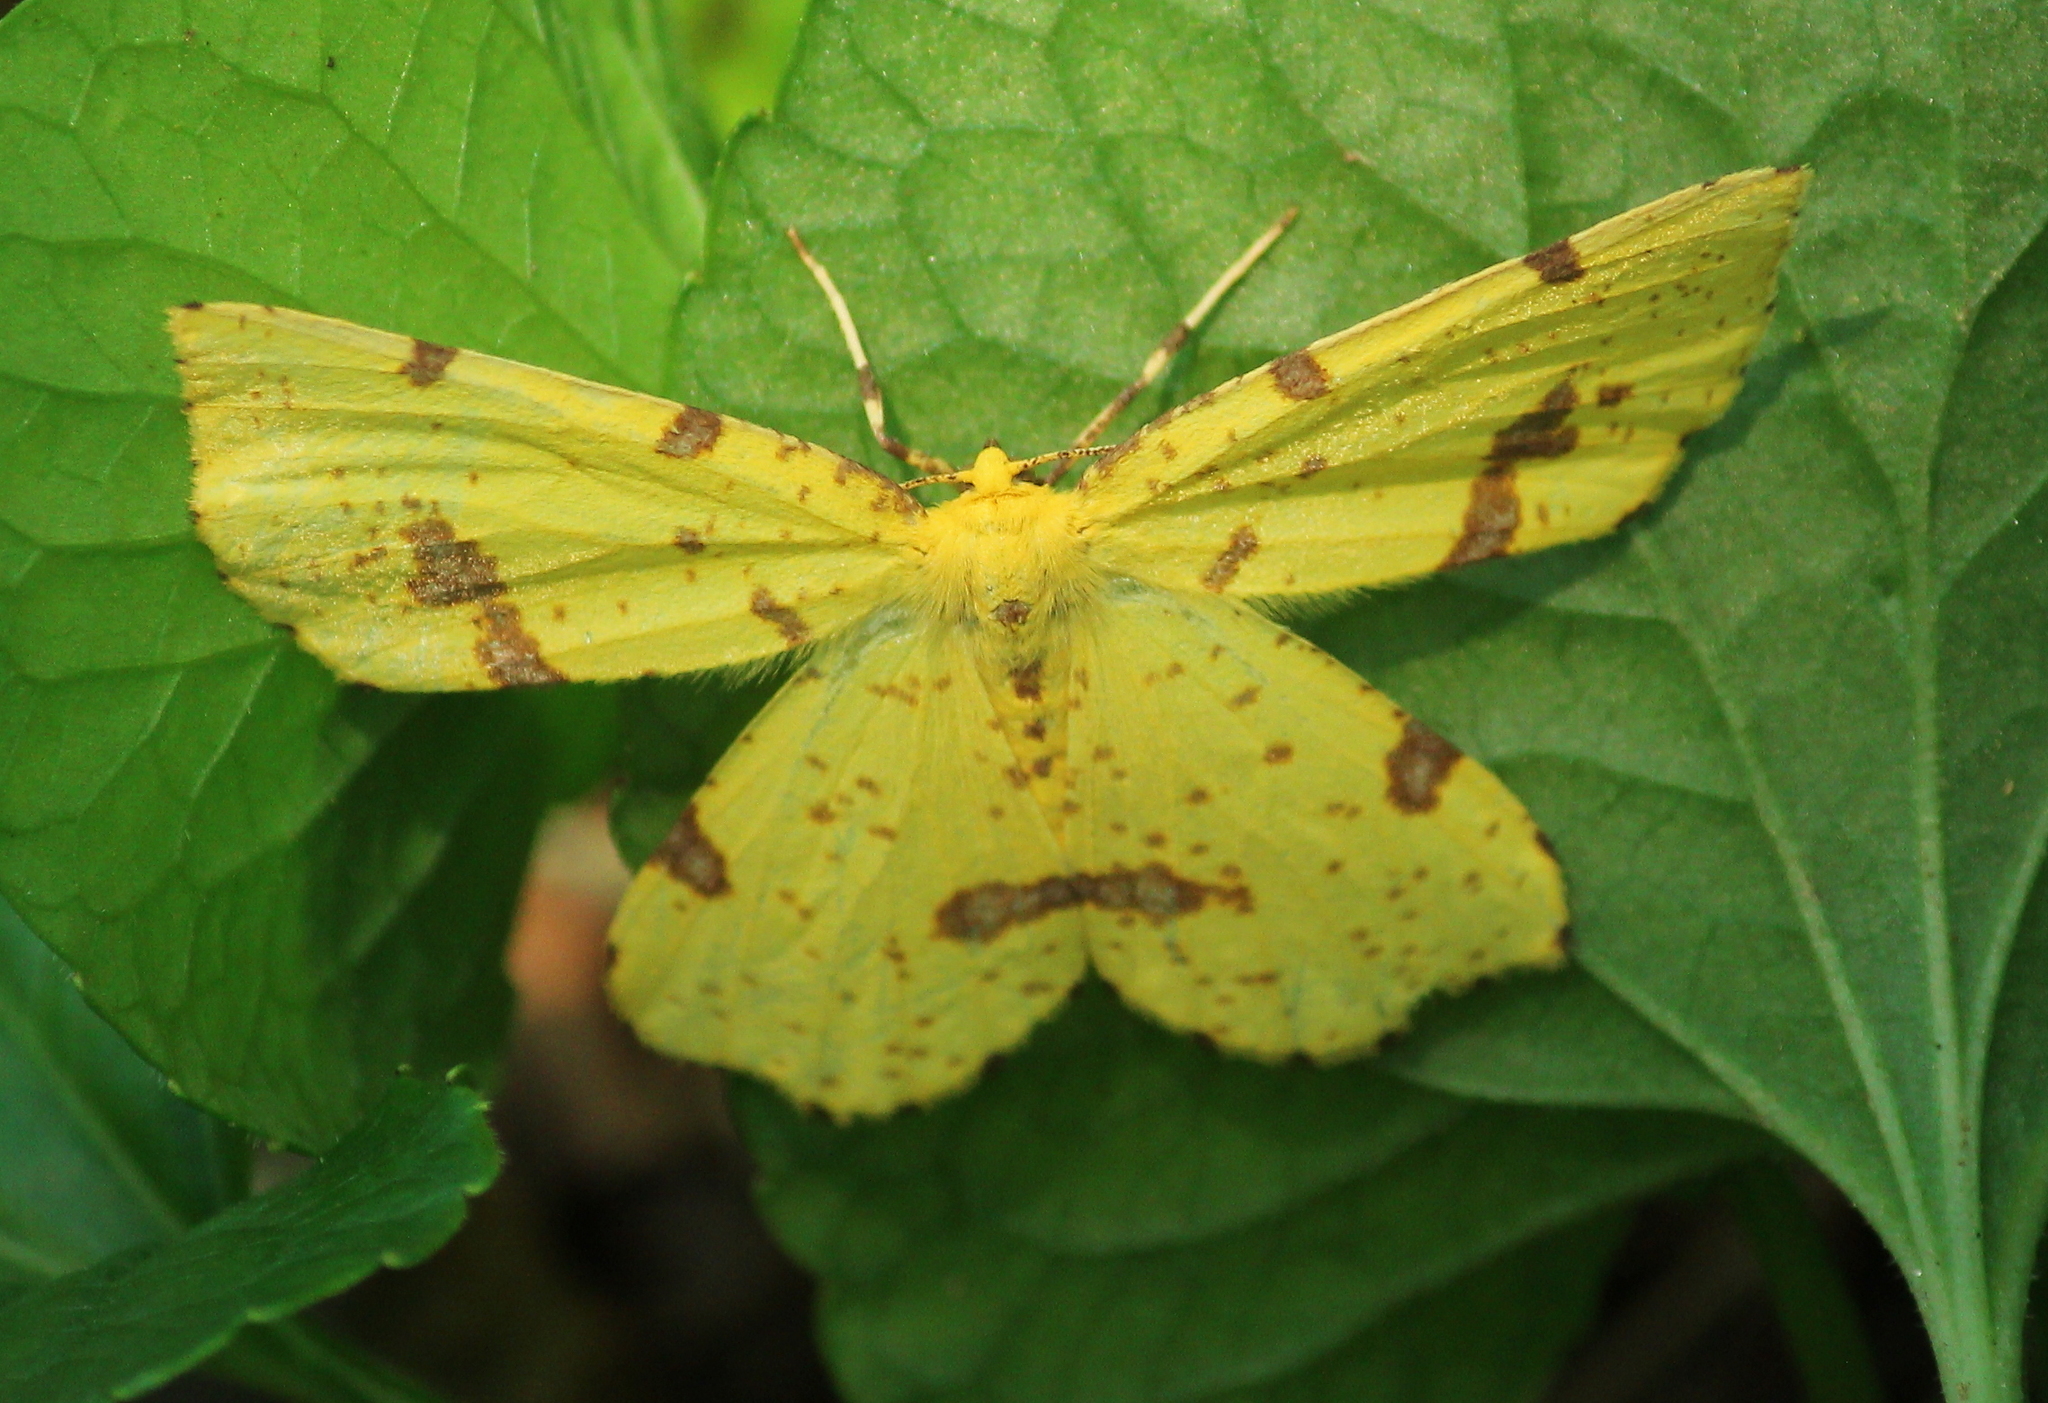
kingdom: Animalia
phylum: Arthropoda
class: Insecta
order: Lepidoptera
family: Geometridae
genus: Xanthotype
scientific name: Xanthotype
